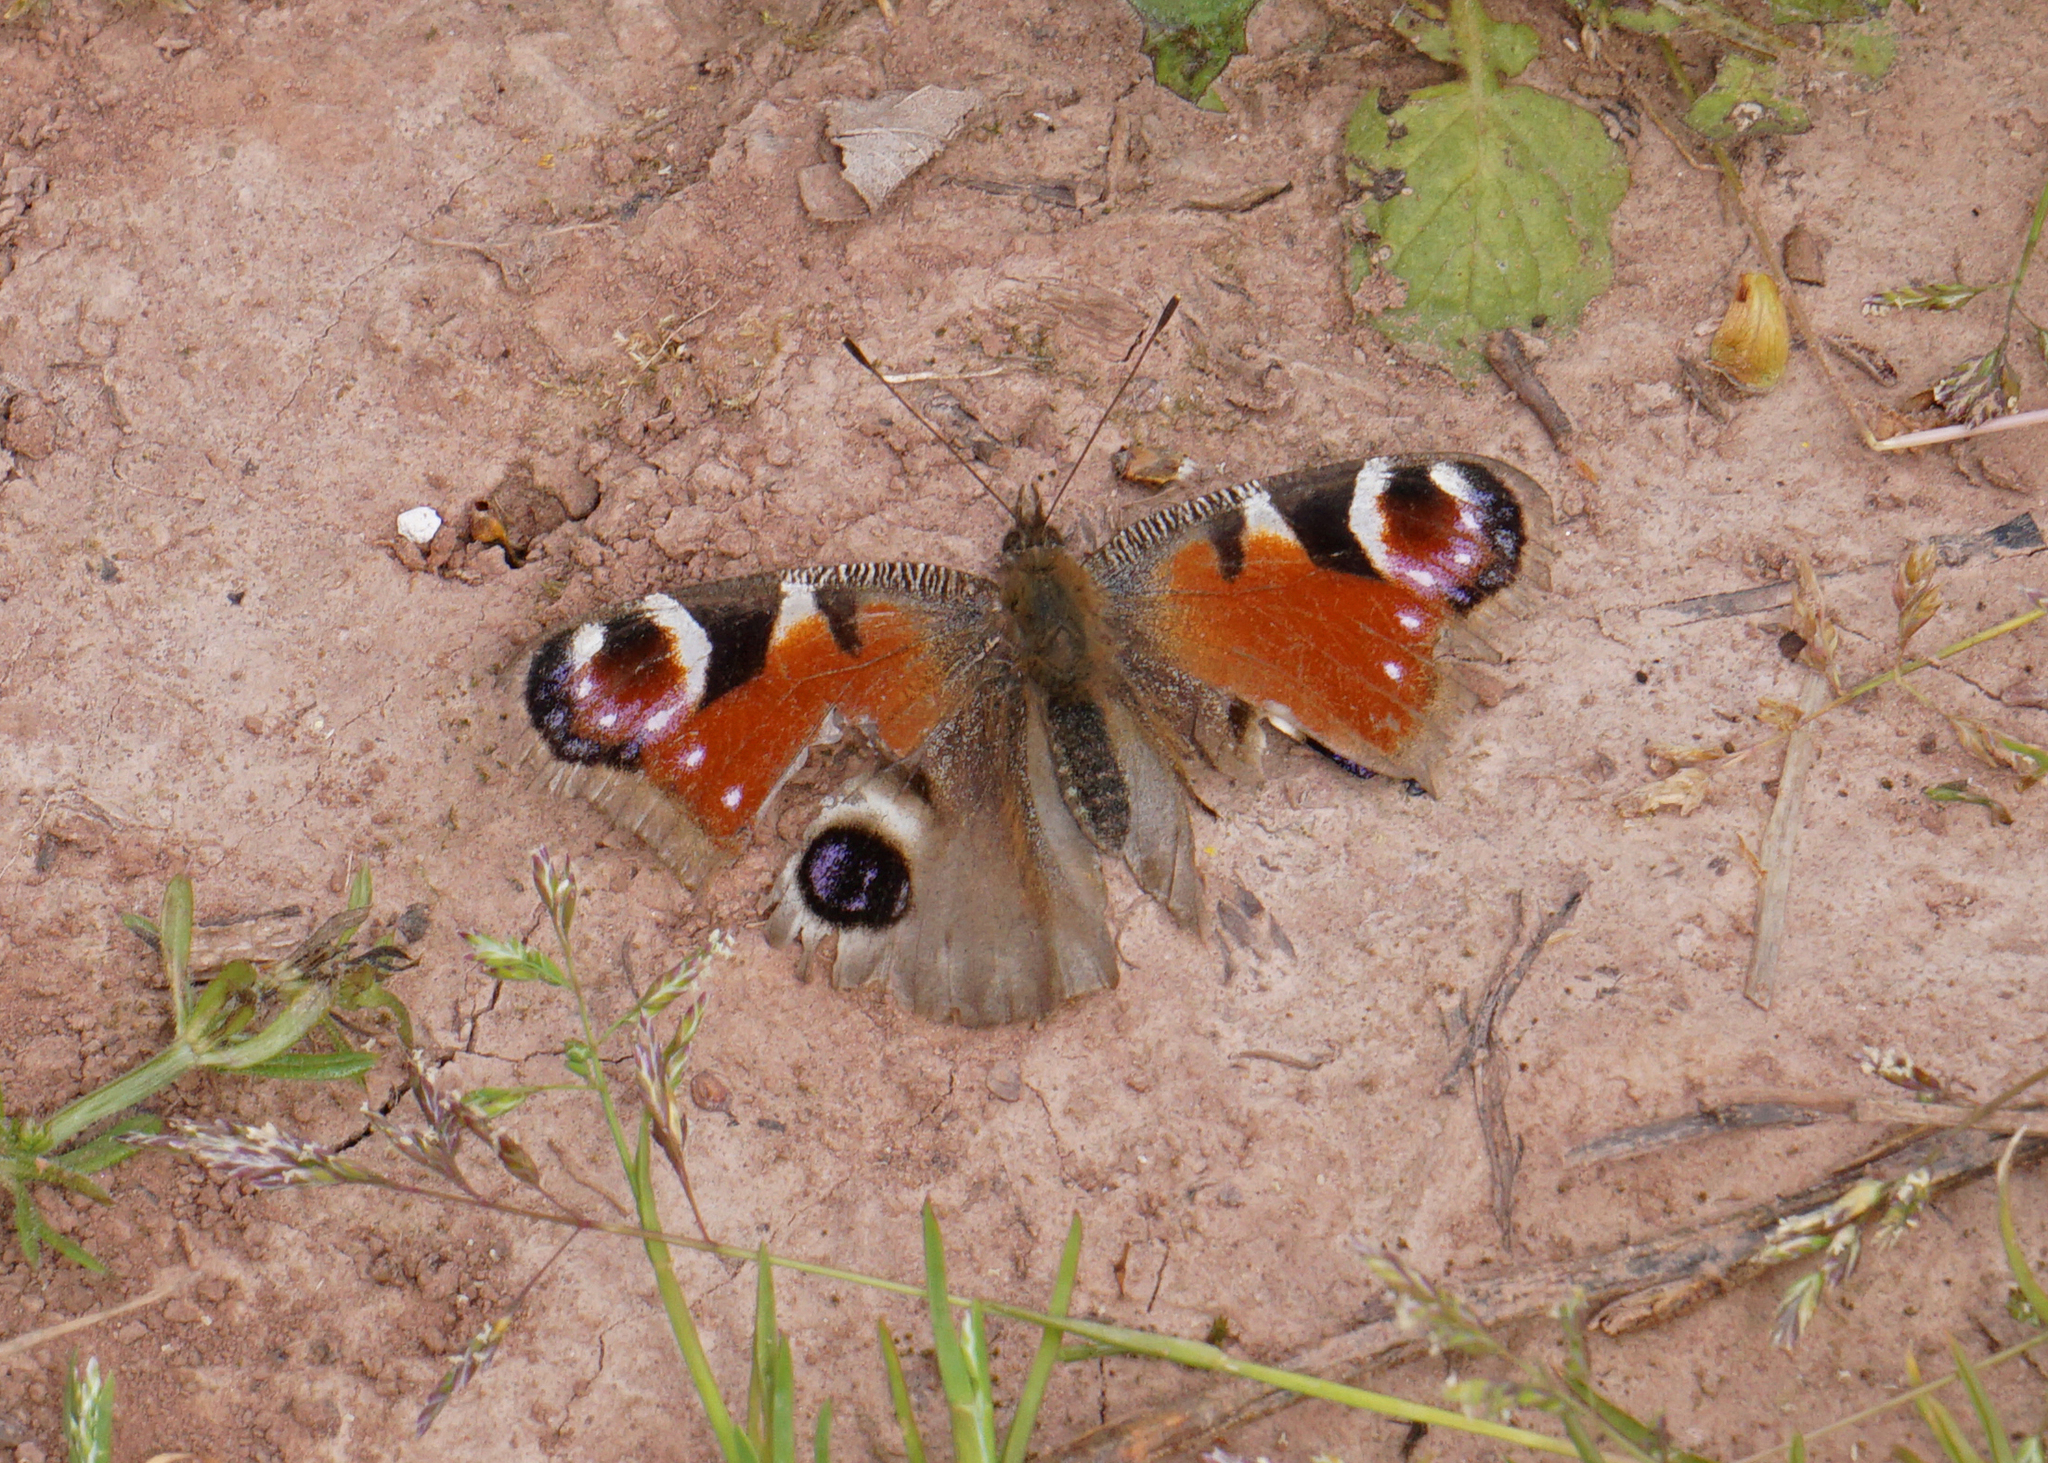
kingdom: Animalia
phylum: Arthropoda
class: Insecta
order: Lepidoptera
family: Nymphalidae
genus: Aglais
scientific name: Aglais io
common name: Peacock
